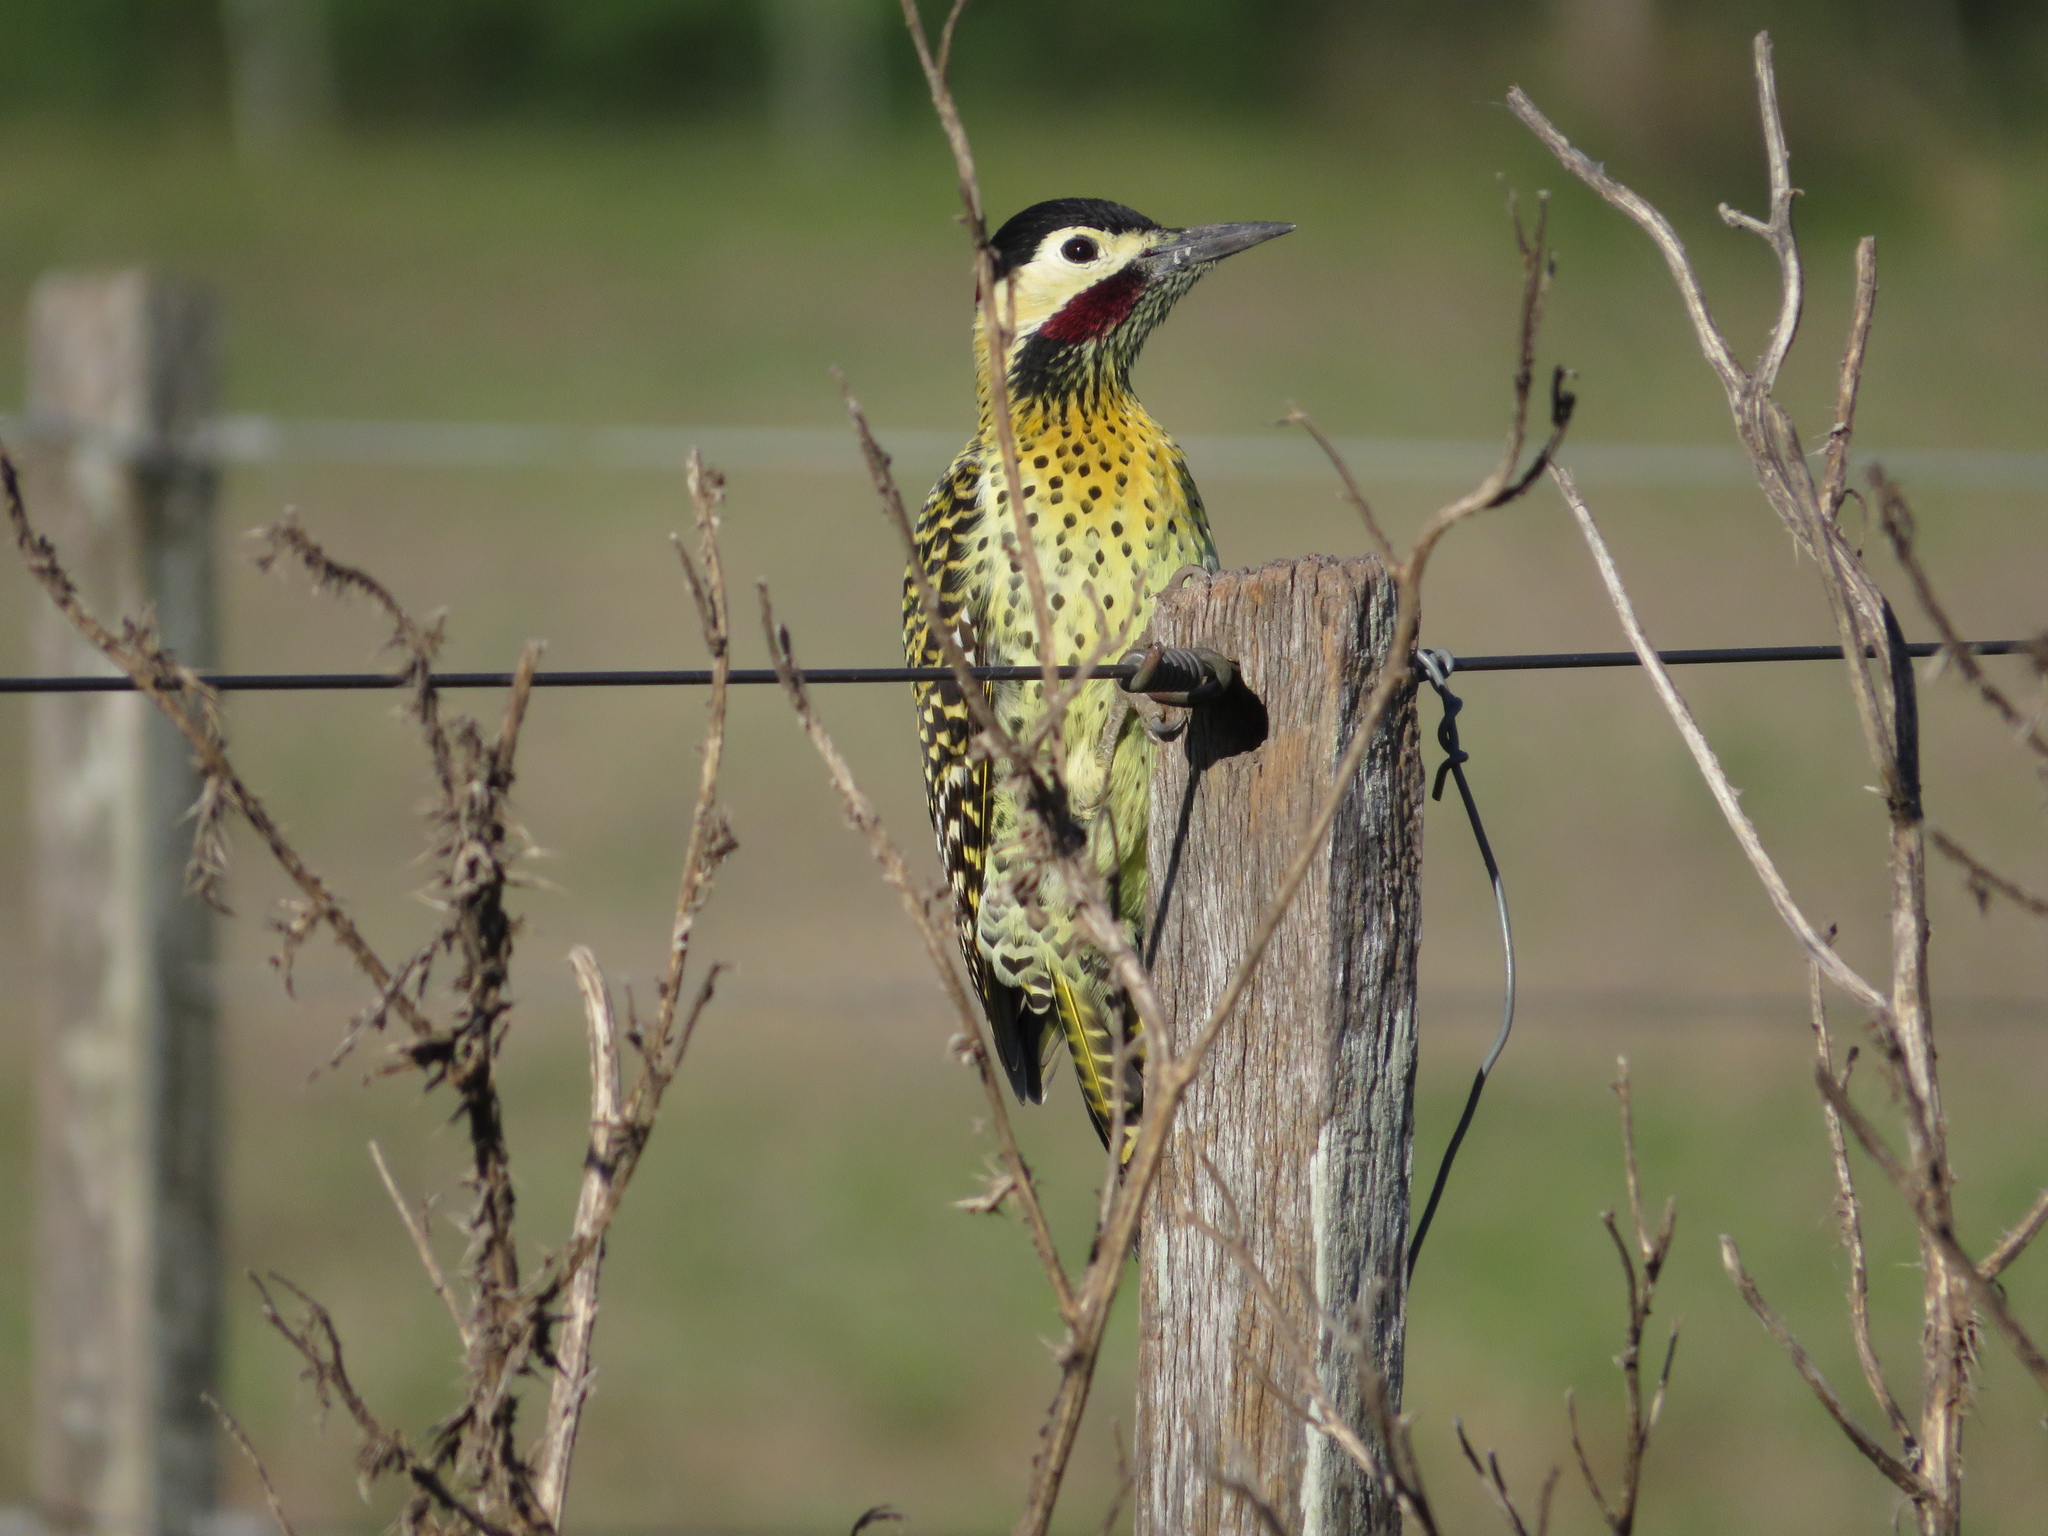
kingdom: Animalia
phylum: Chordata
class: Aves
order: Piciformes
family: Picidae
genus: Colaptes
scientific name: Colaptes melanochloros
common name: Green-barred woodpecker
